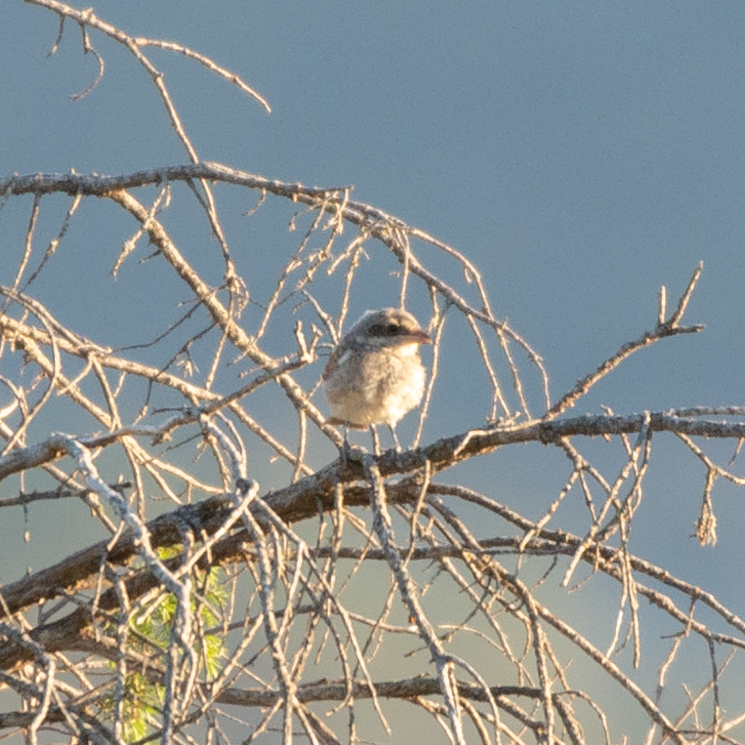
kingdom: Animalia
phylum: Chordata
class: Aves
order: Passeriformes
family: Laniidae
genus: Lanius
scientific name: Lanius collurio
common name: Red-backed shrike
